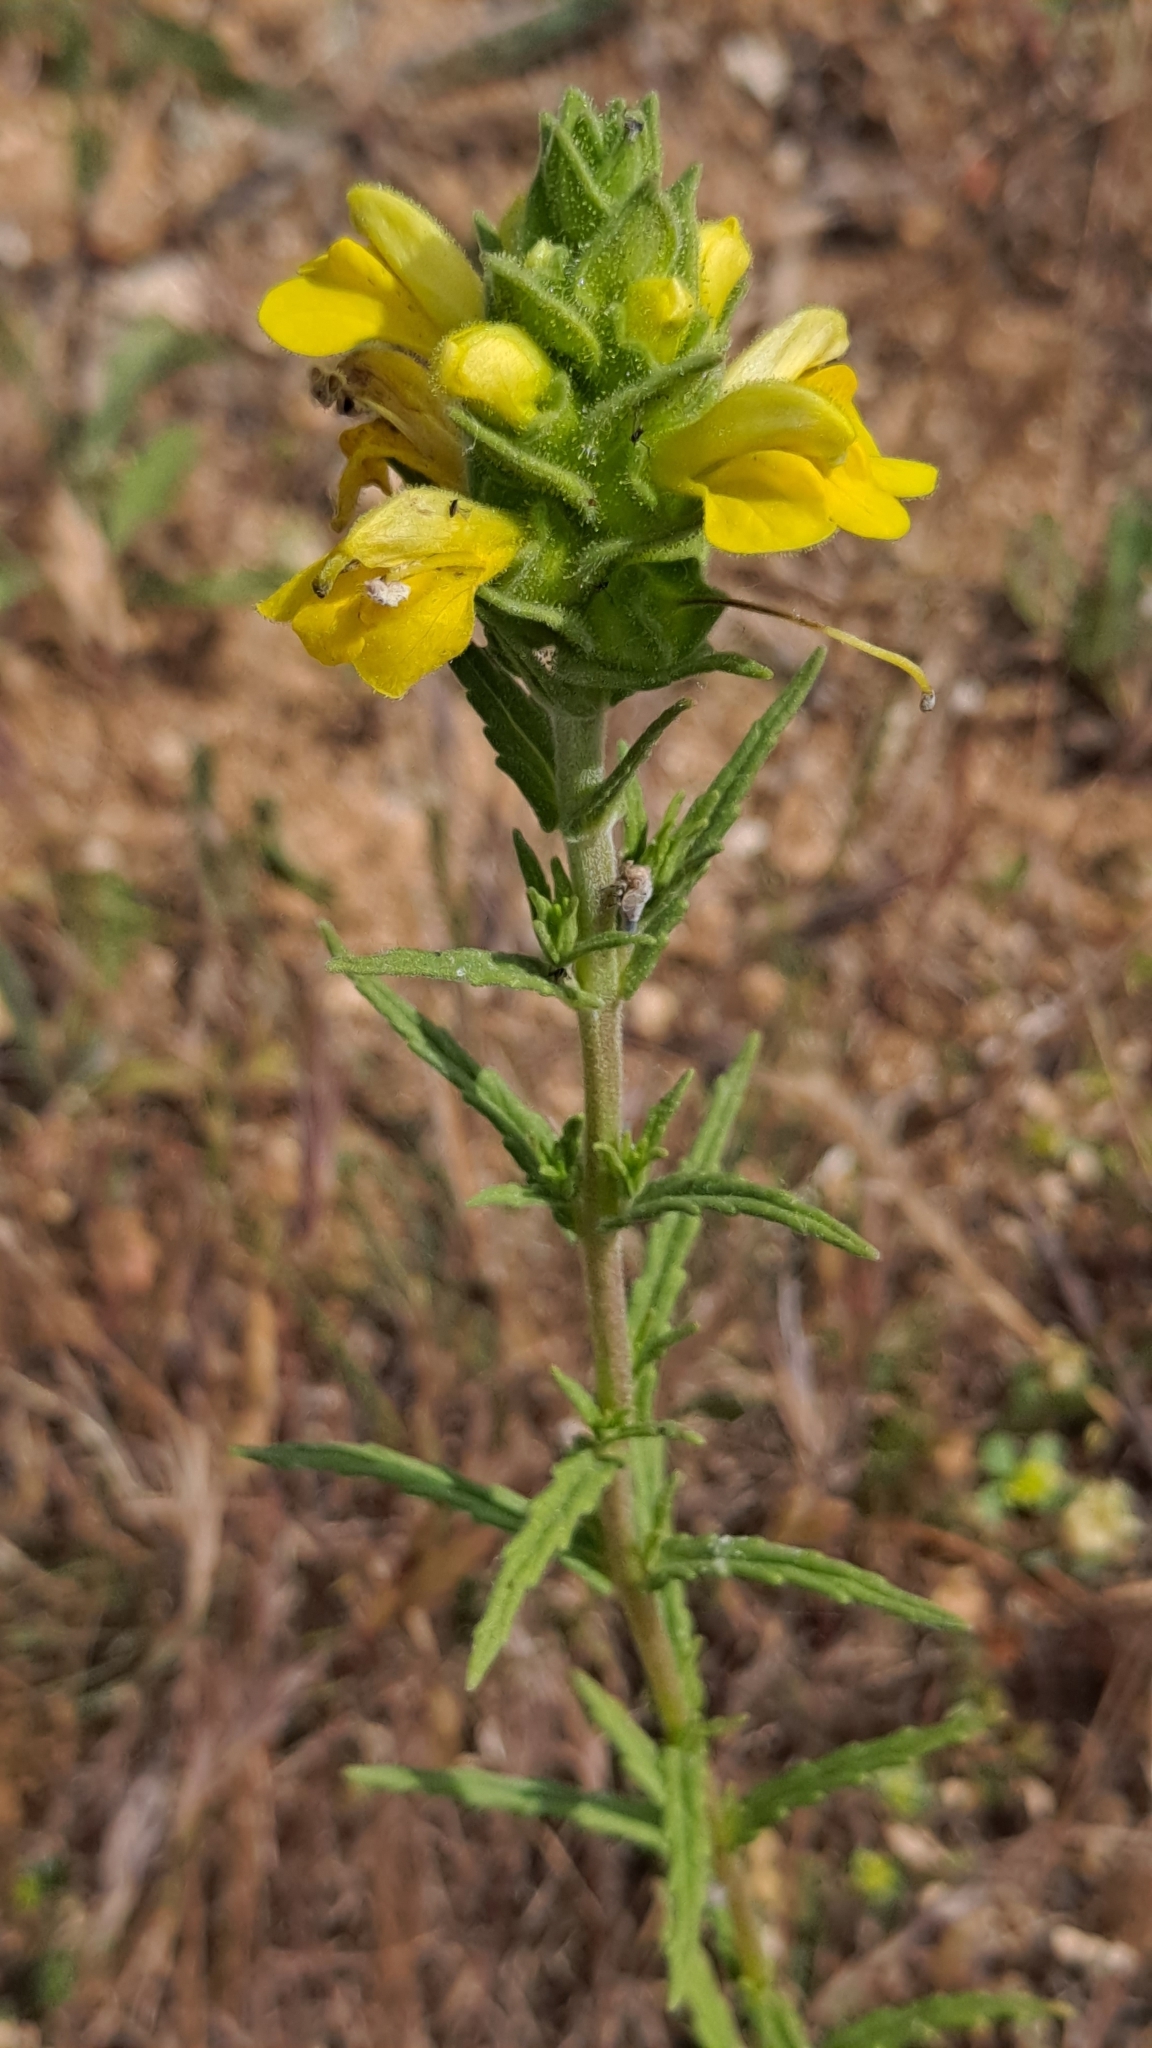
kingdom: Plantae
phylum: Tracheophyta
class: Magnoliopsida
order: Lamiales
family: Orobanchaceae
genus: Bellardia
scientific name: Bellardia trixago
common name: Mediterranean lineseed
